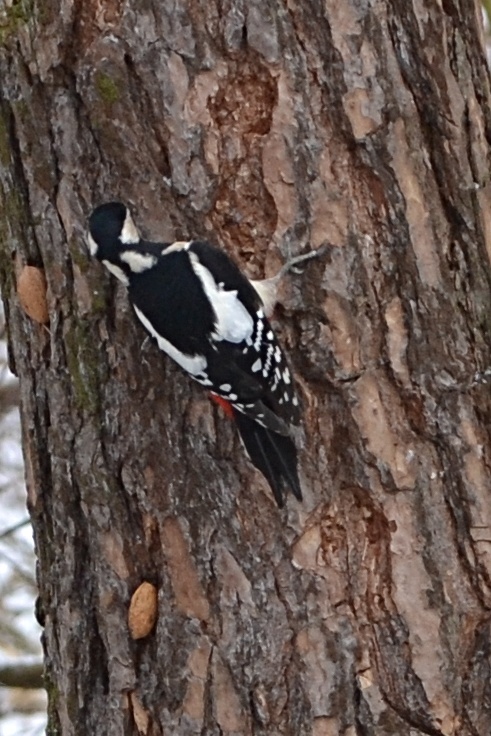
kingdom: Animalia
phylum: Chordata
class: Aves
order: Piciformes
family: Picidae
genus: Dendrocopos
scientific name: Dendrocopos major
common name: Great spotted woodpecker
